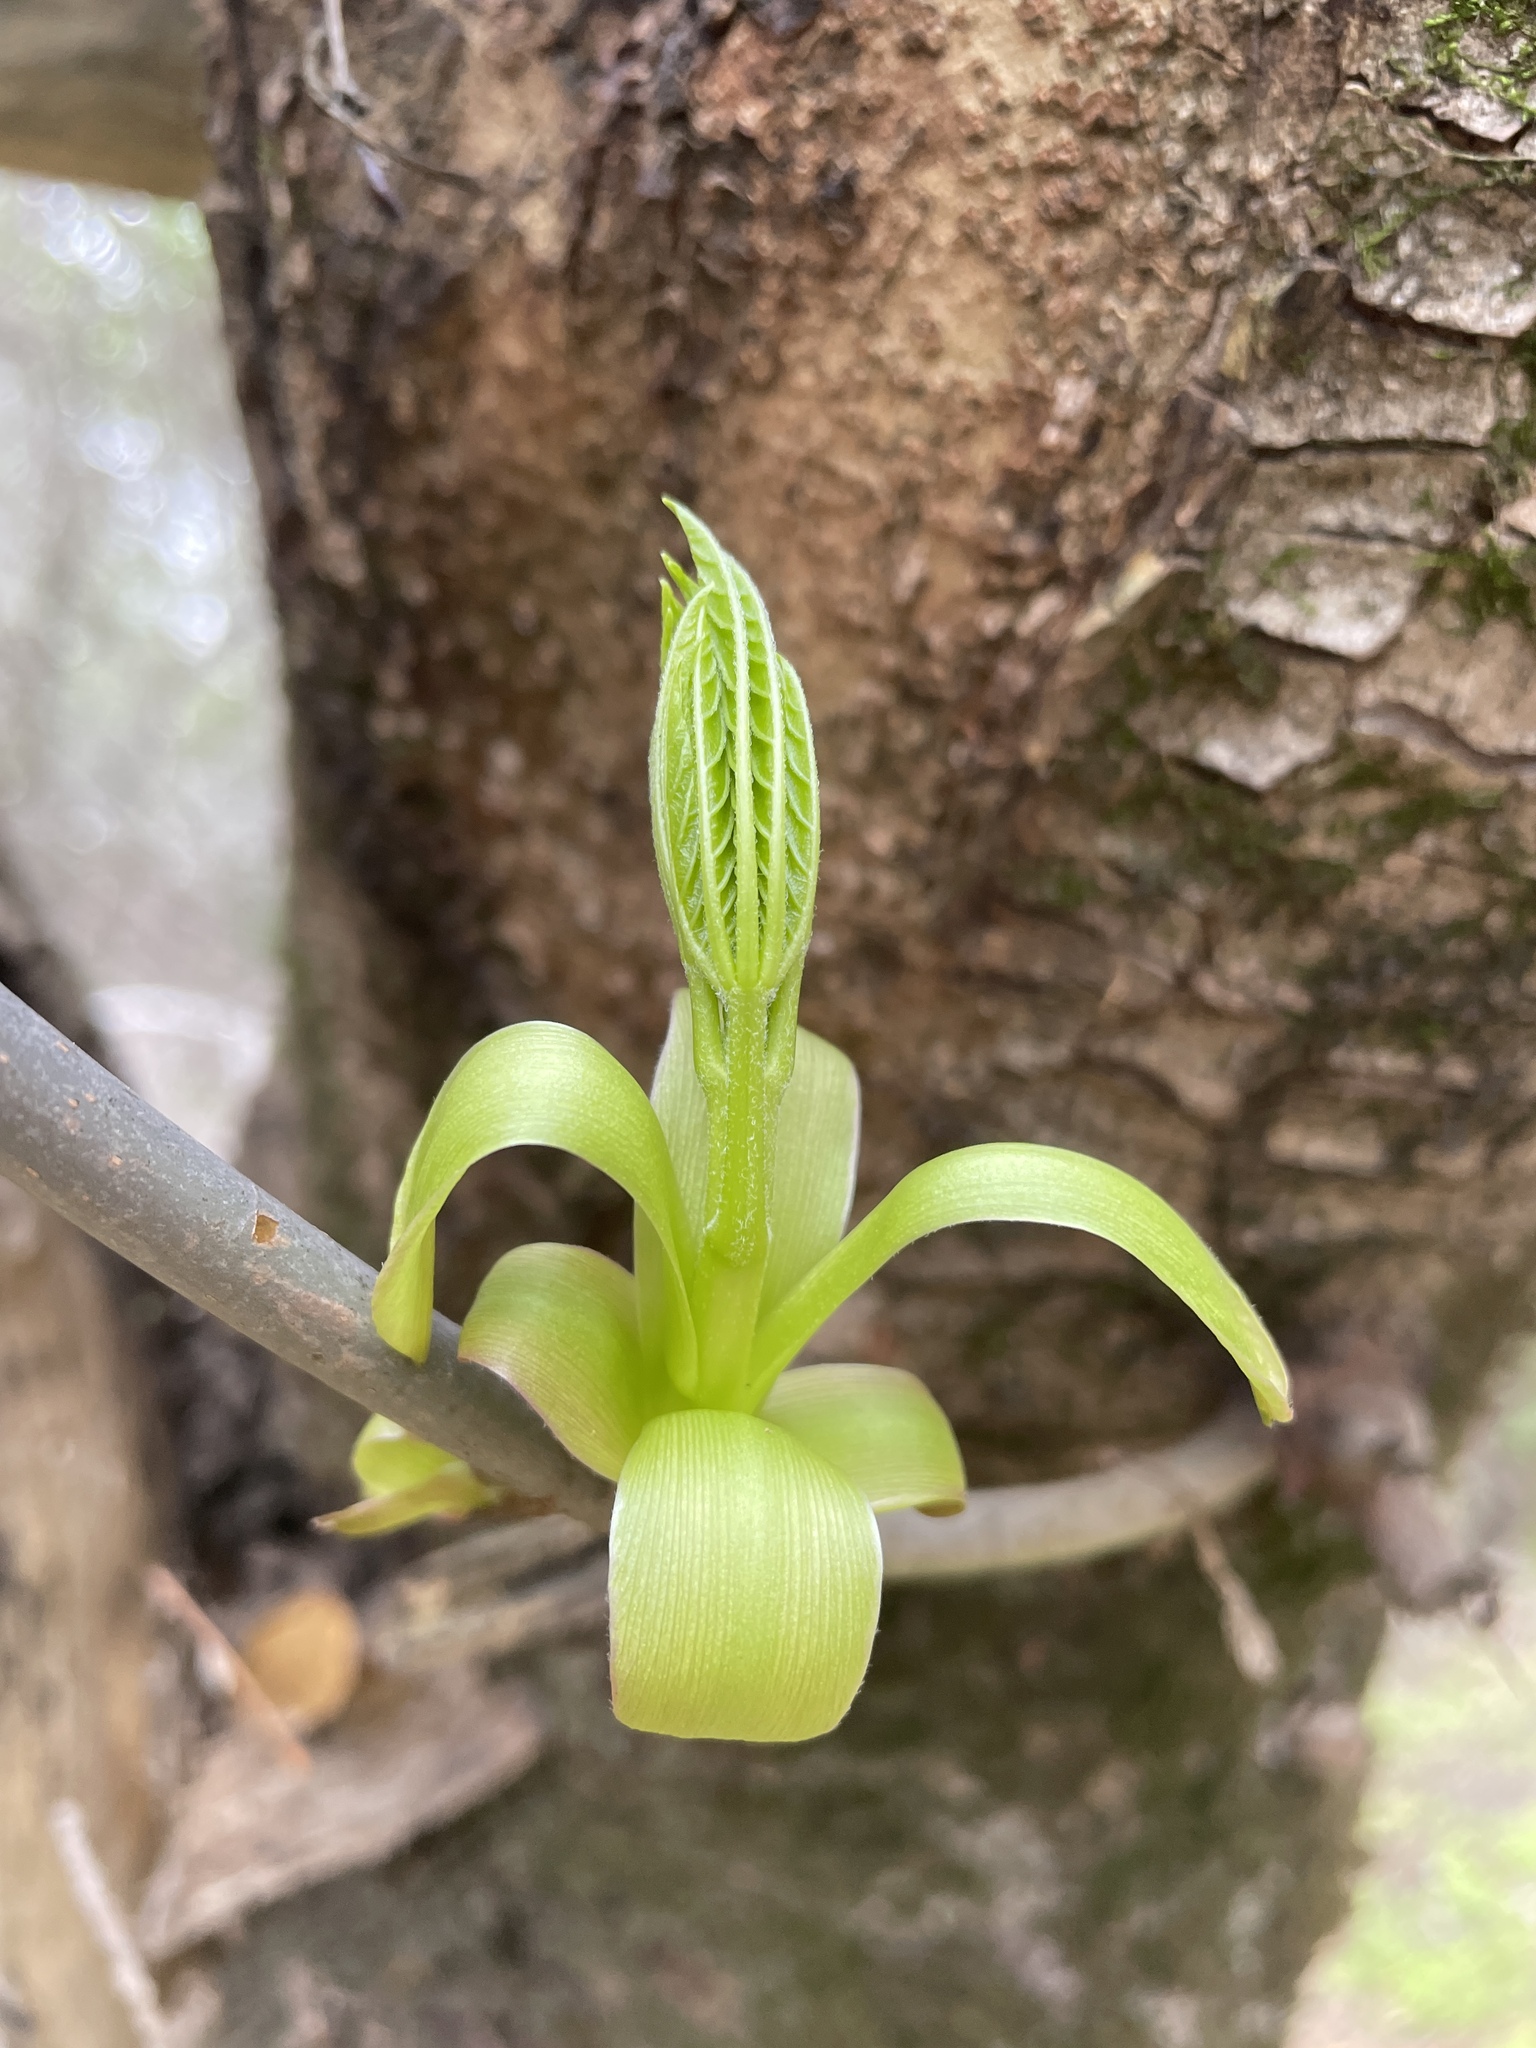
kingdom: Plantae
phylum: Tracheophyta
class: Magnoliopsida
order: Sapindales
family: Sapindaceae
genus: Aesculus
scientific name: Aesculus californica
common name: California buckeye
